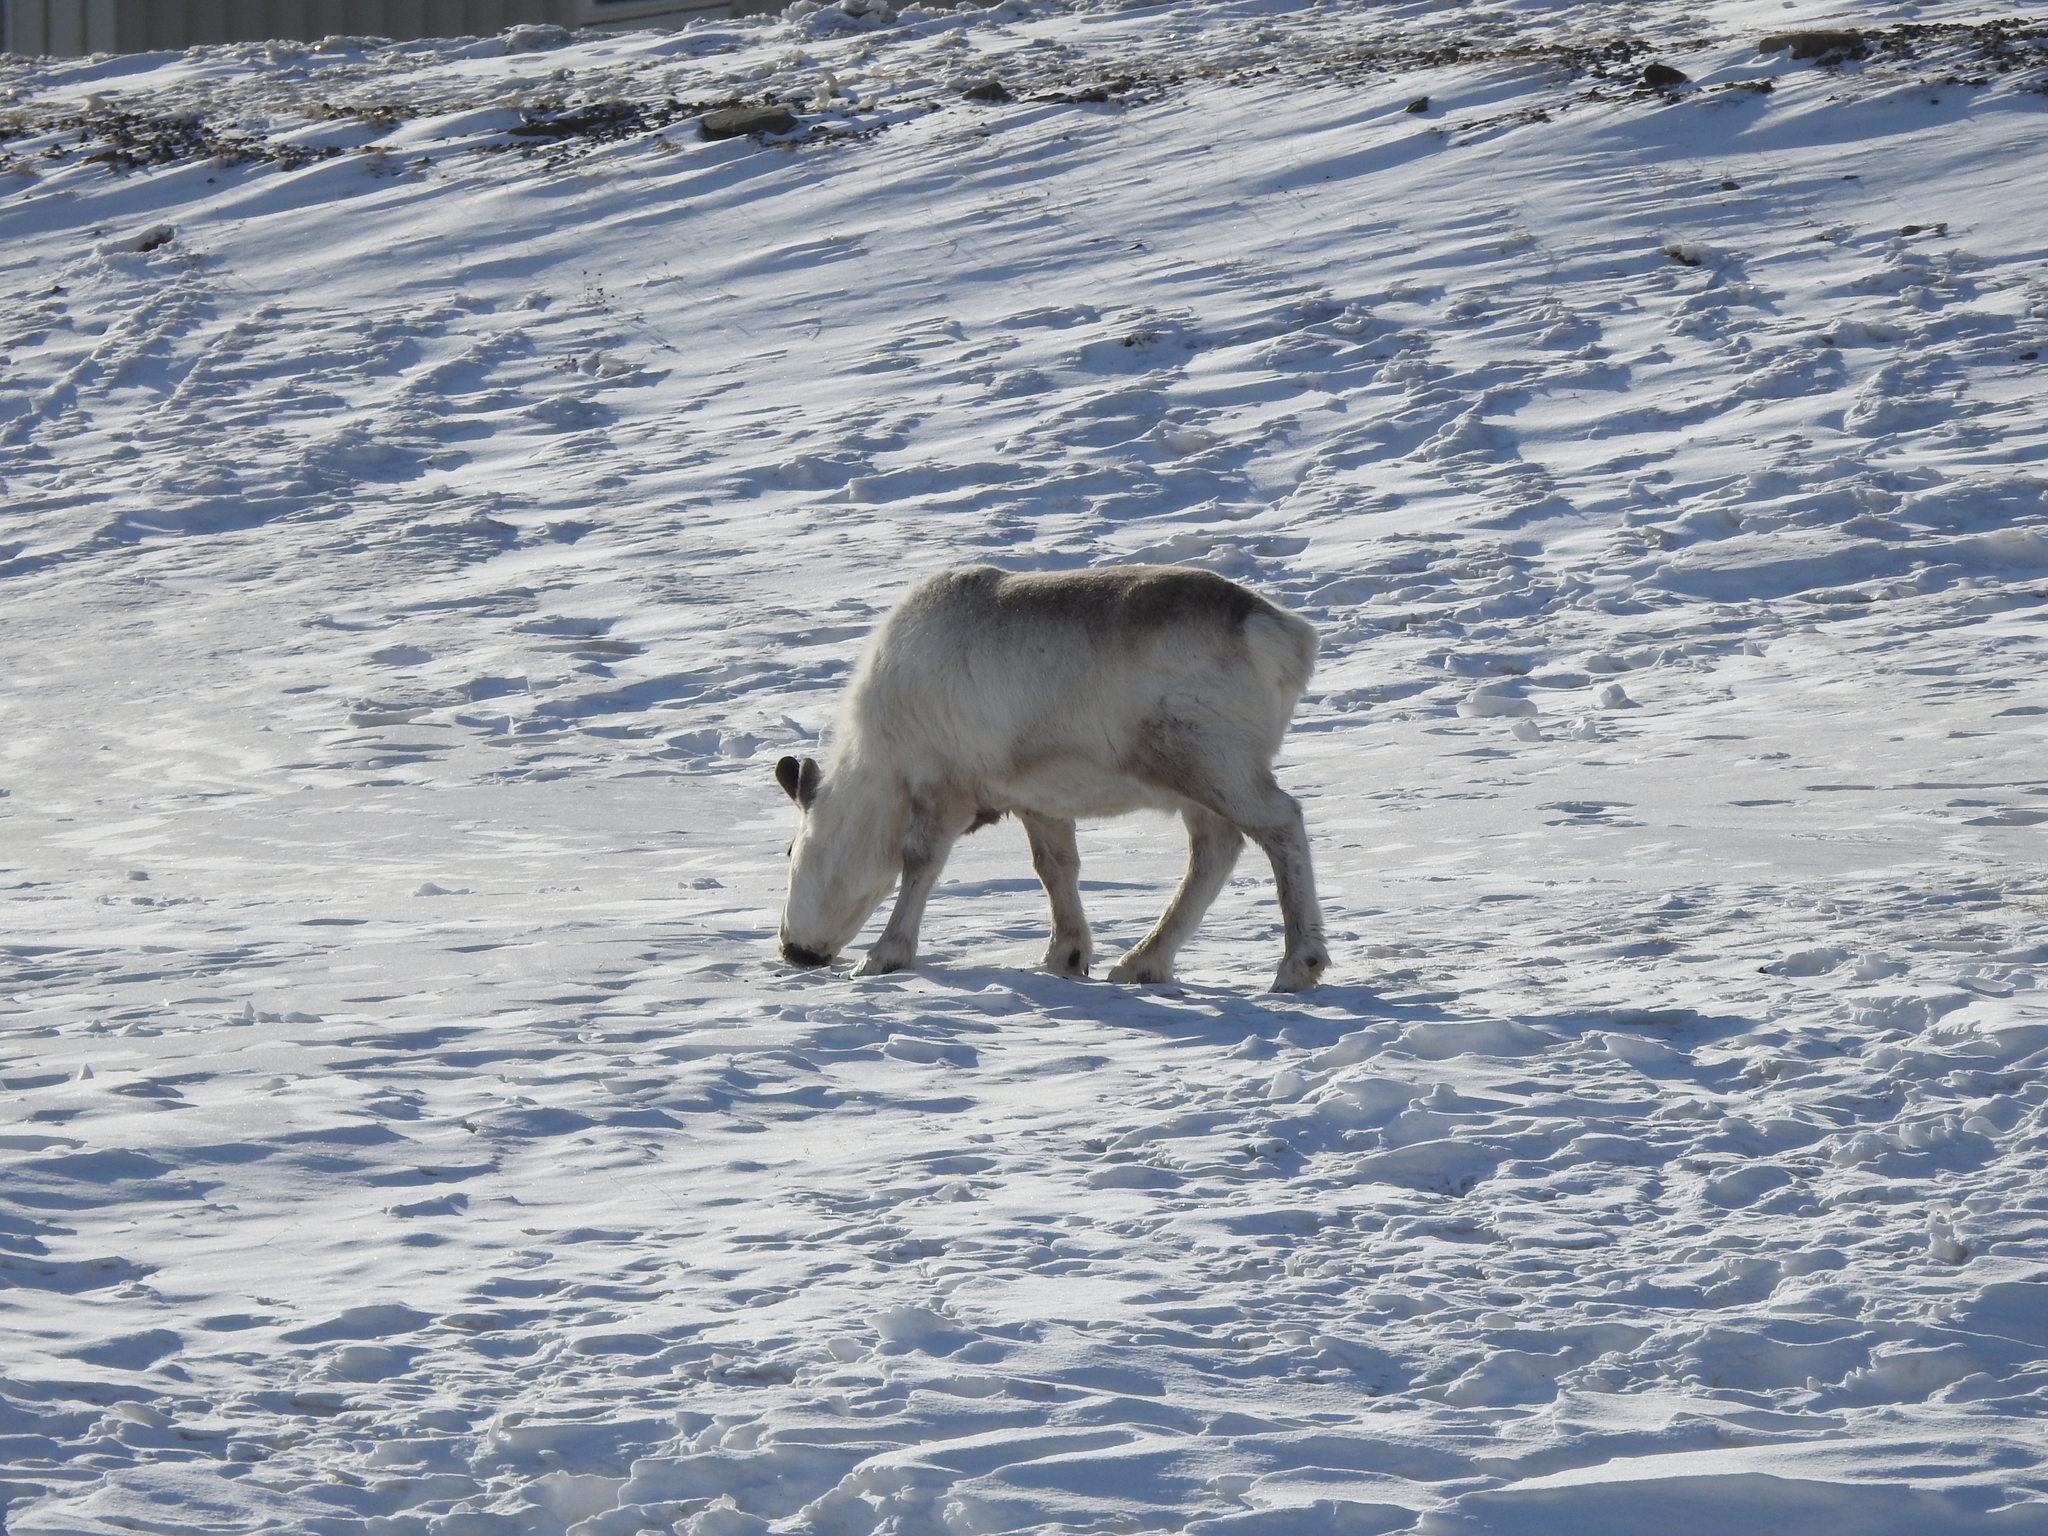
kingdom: Animalia
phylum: Chordata
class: Mammalia
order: Artiodactyla
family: Cervidae
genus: Rangifer
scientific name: Rangifer tarandus
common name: Reindeer
